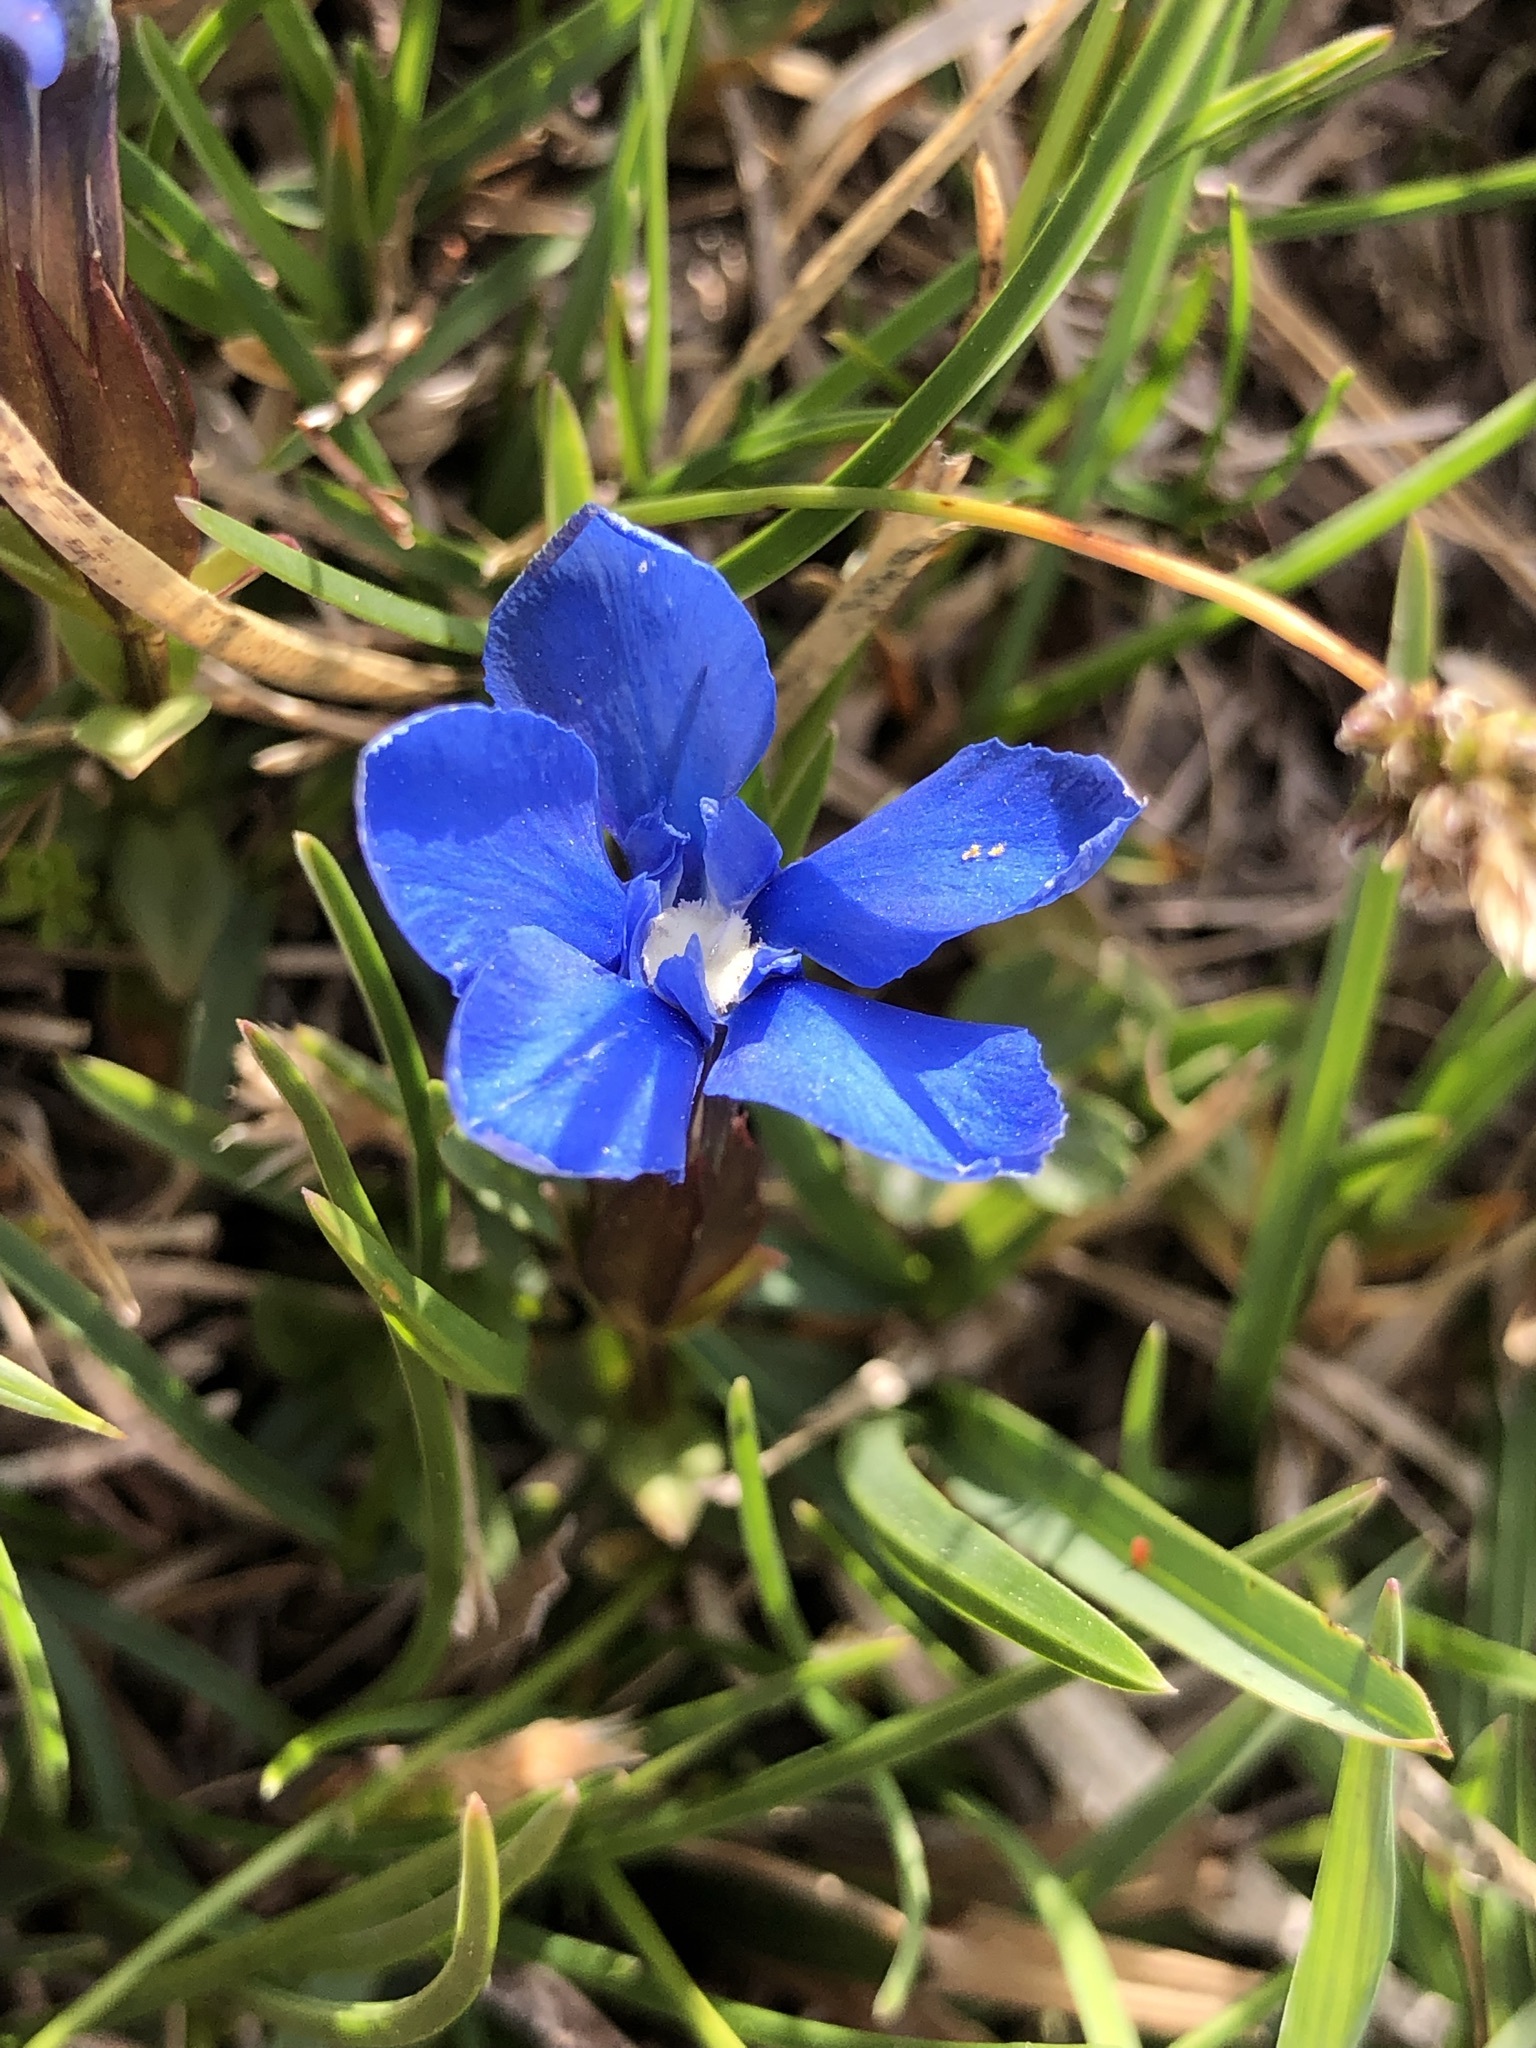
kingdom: Plantae
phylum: Tracheophyta
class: Magnoliopsida
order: Gentianales
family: Gentianaceae
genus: Gentiana
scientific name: Gentiana verna
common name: Spring gentian
